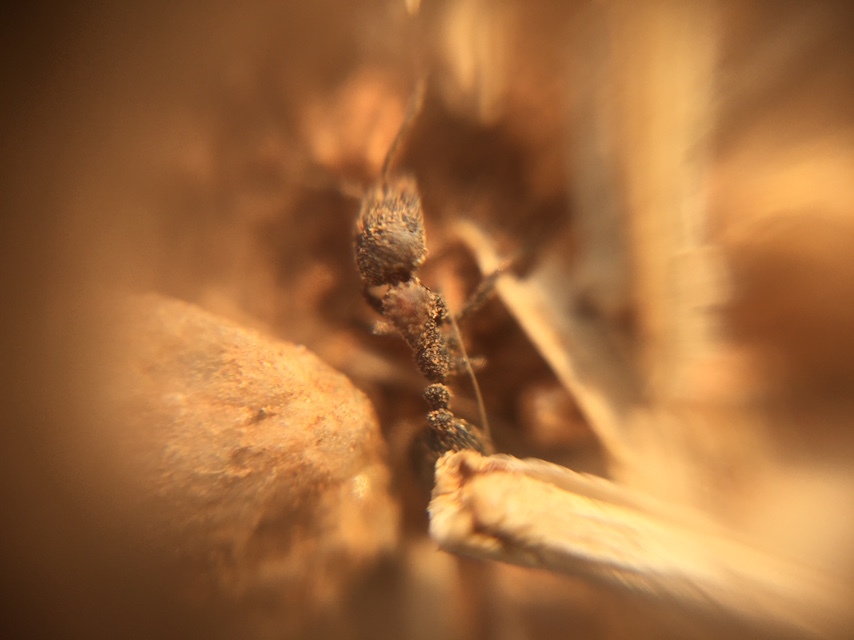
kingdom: Animalia
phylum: Arthropoda
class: Insecta
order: Hymenoptera
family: Formicidae
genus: Monomorium
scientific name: Monomorium indicum
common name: Ant
